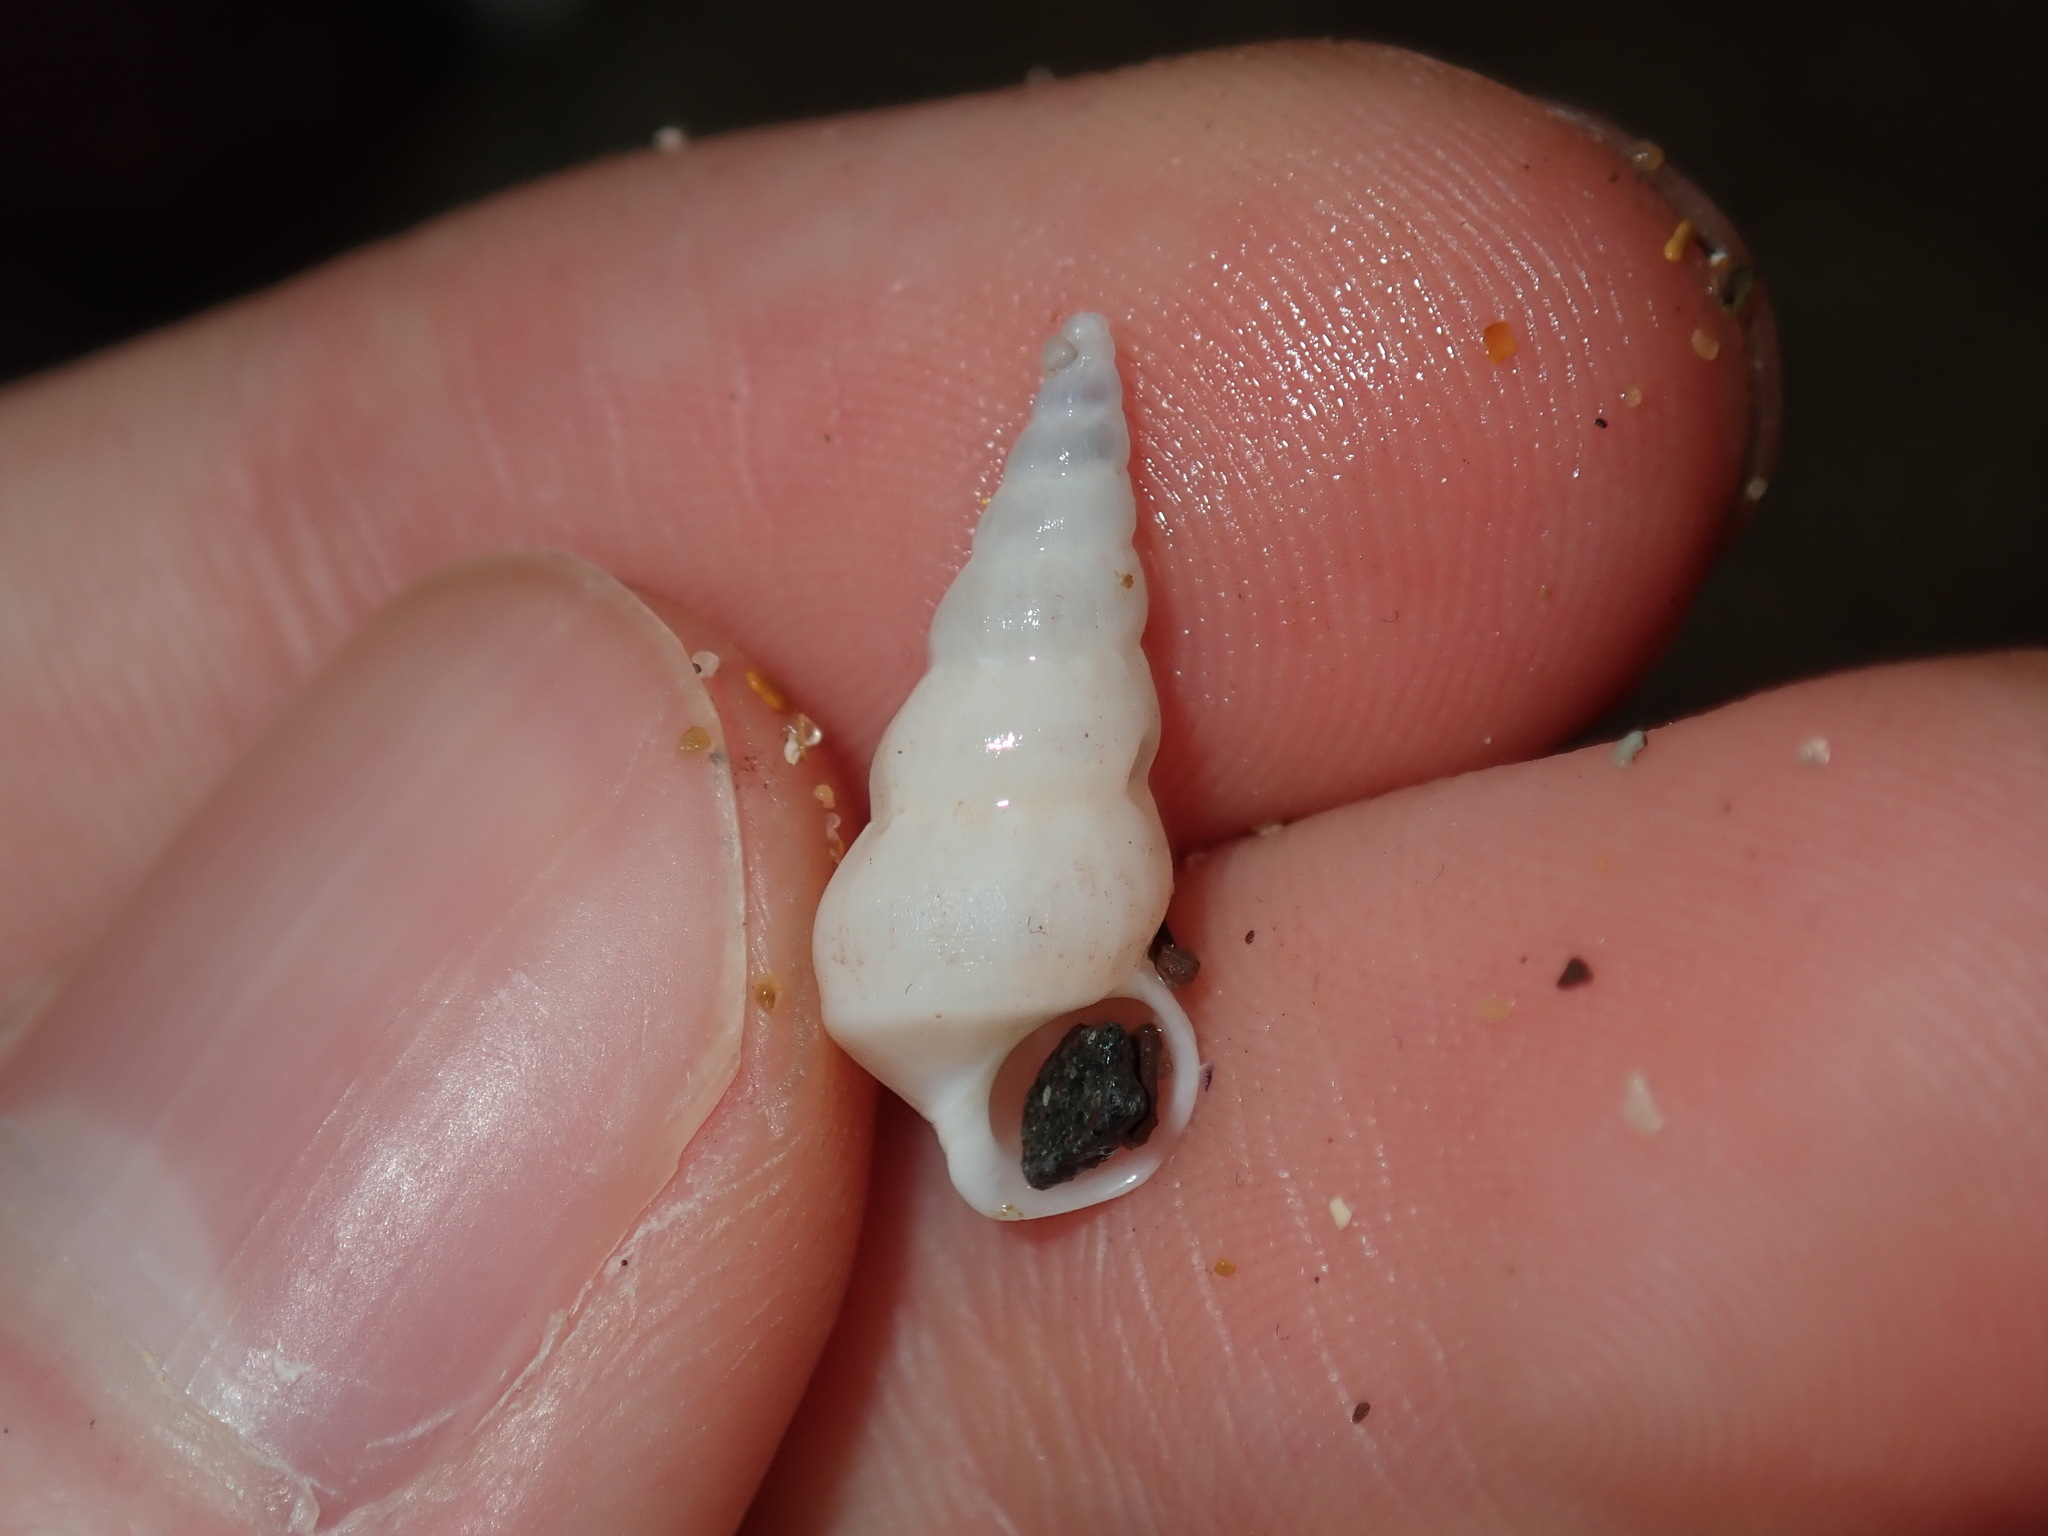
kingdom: Animalia
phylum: Mollusca
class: Gastropoda
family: Epitoniidae
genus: Opalia
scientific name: Opalia ballinensis
